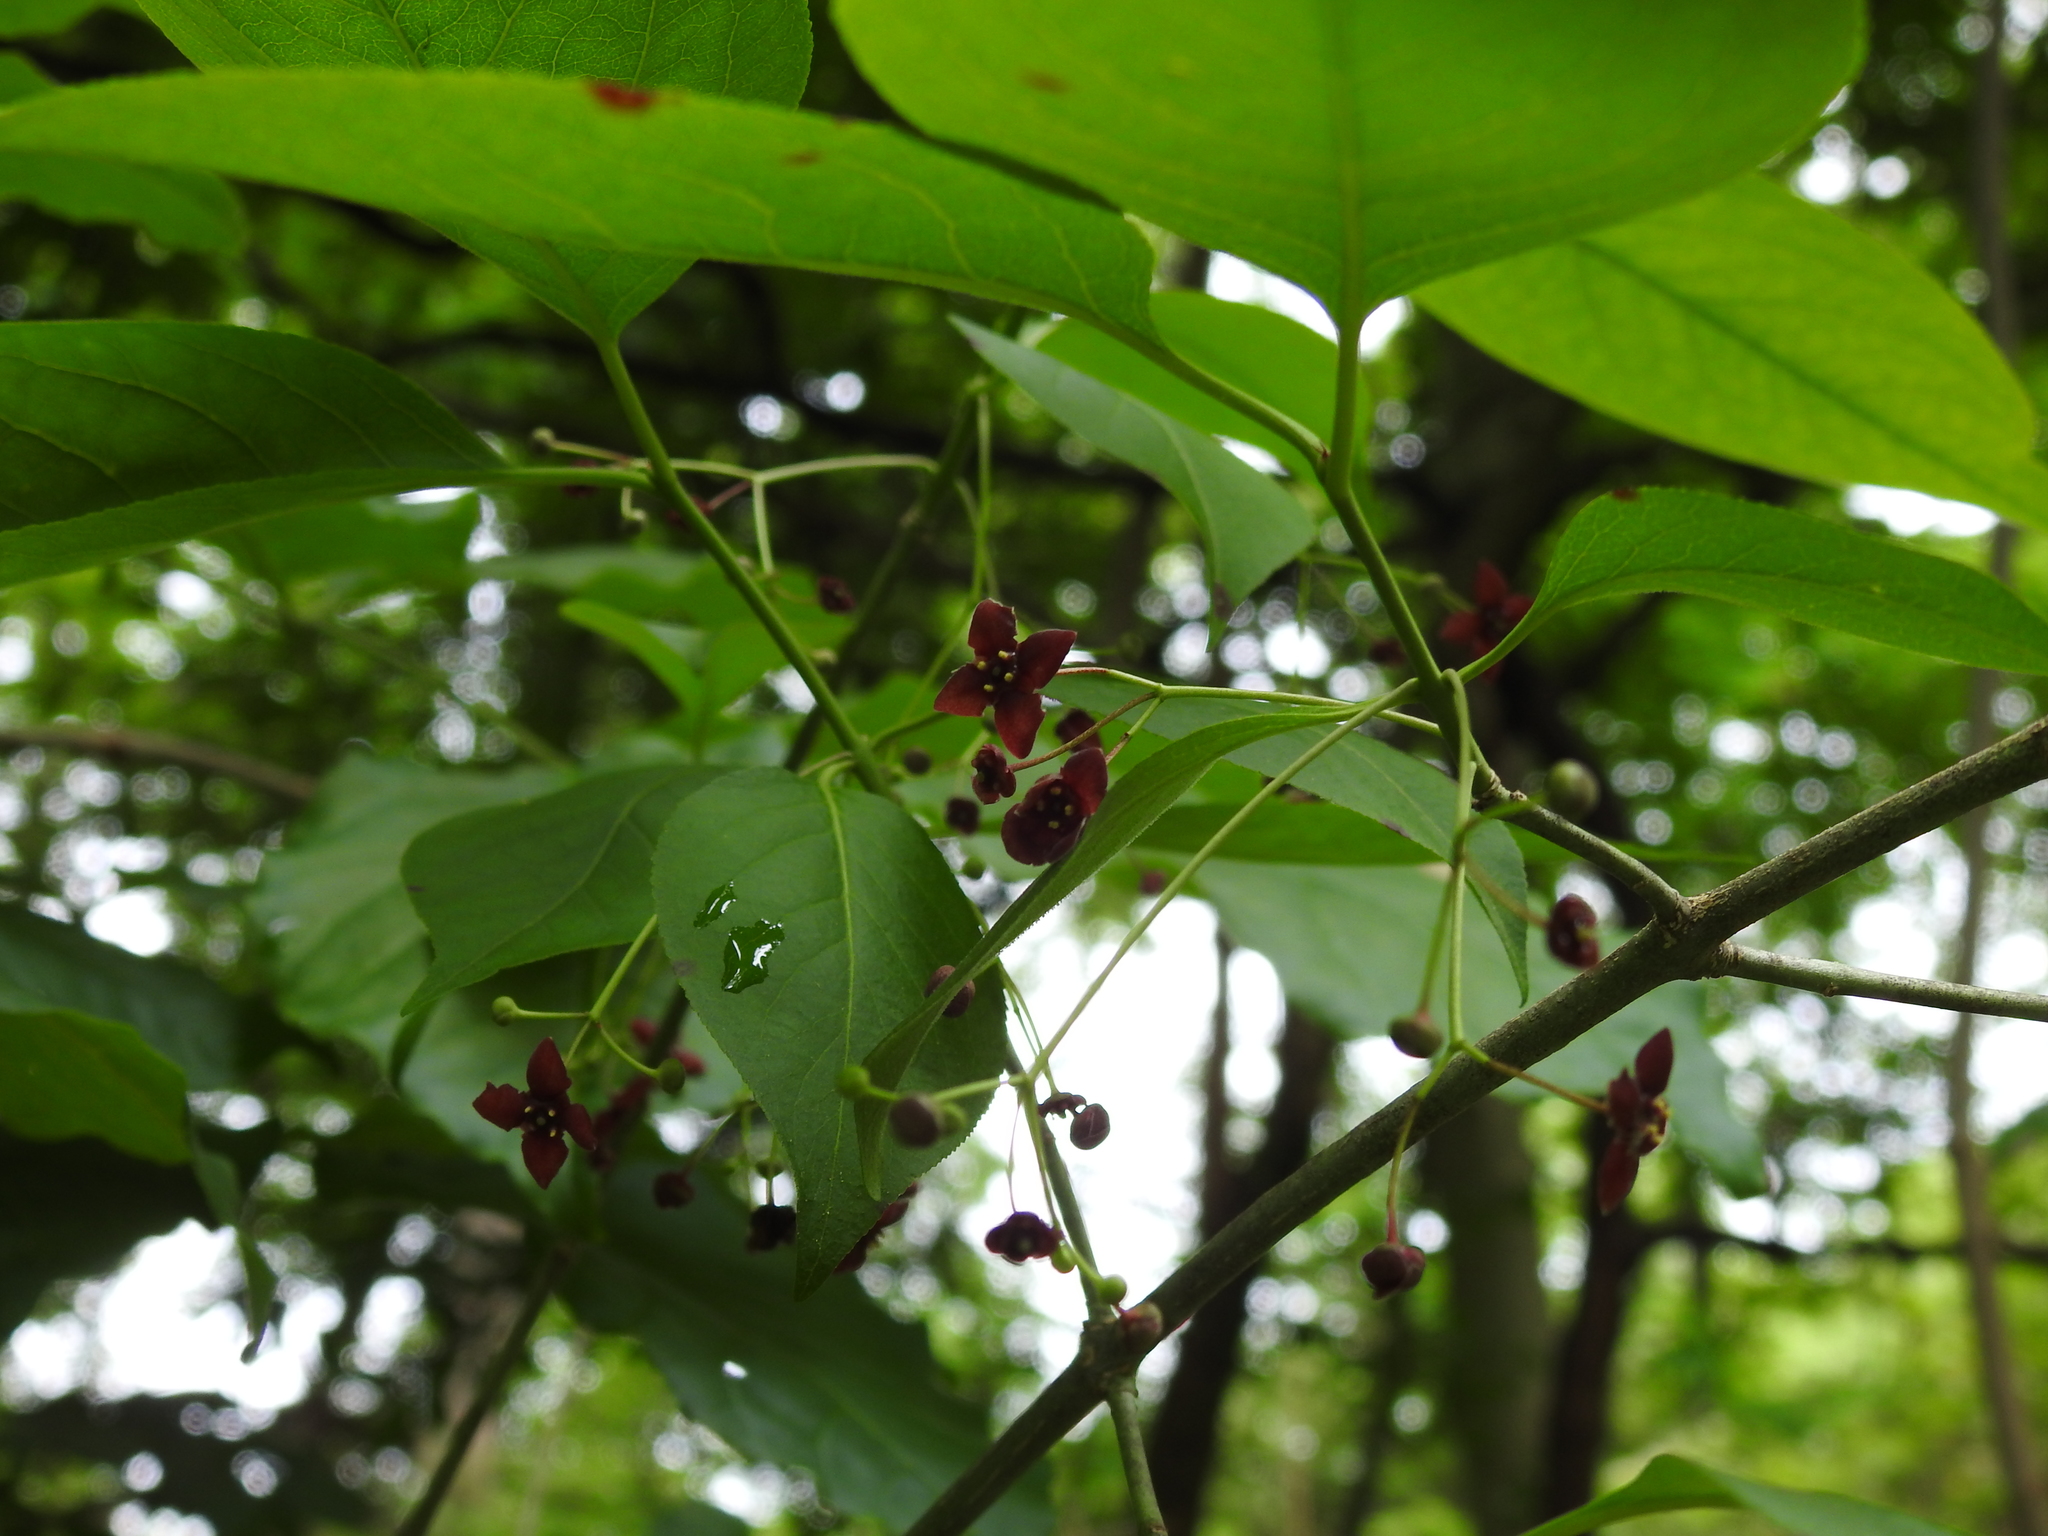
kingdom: Plantae
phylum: Tracheophyta
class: Magnoliopsida
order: Celastrales
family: Celastraceae
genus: Euonymus
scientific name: Euonymus atropurpureus
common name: Eastern wahoo
